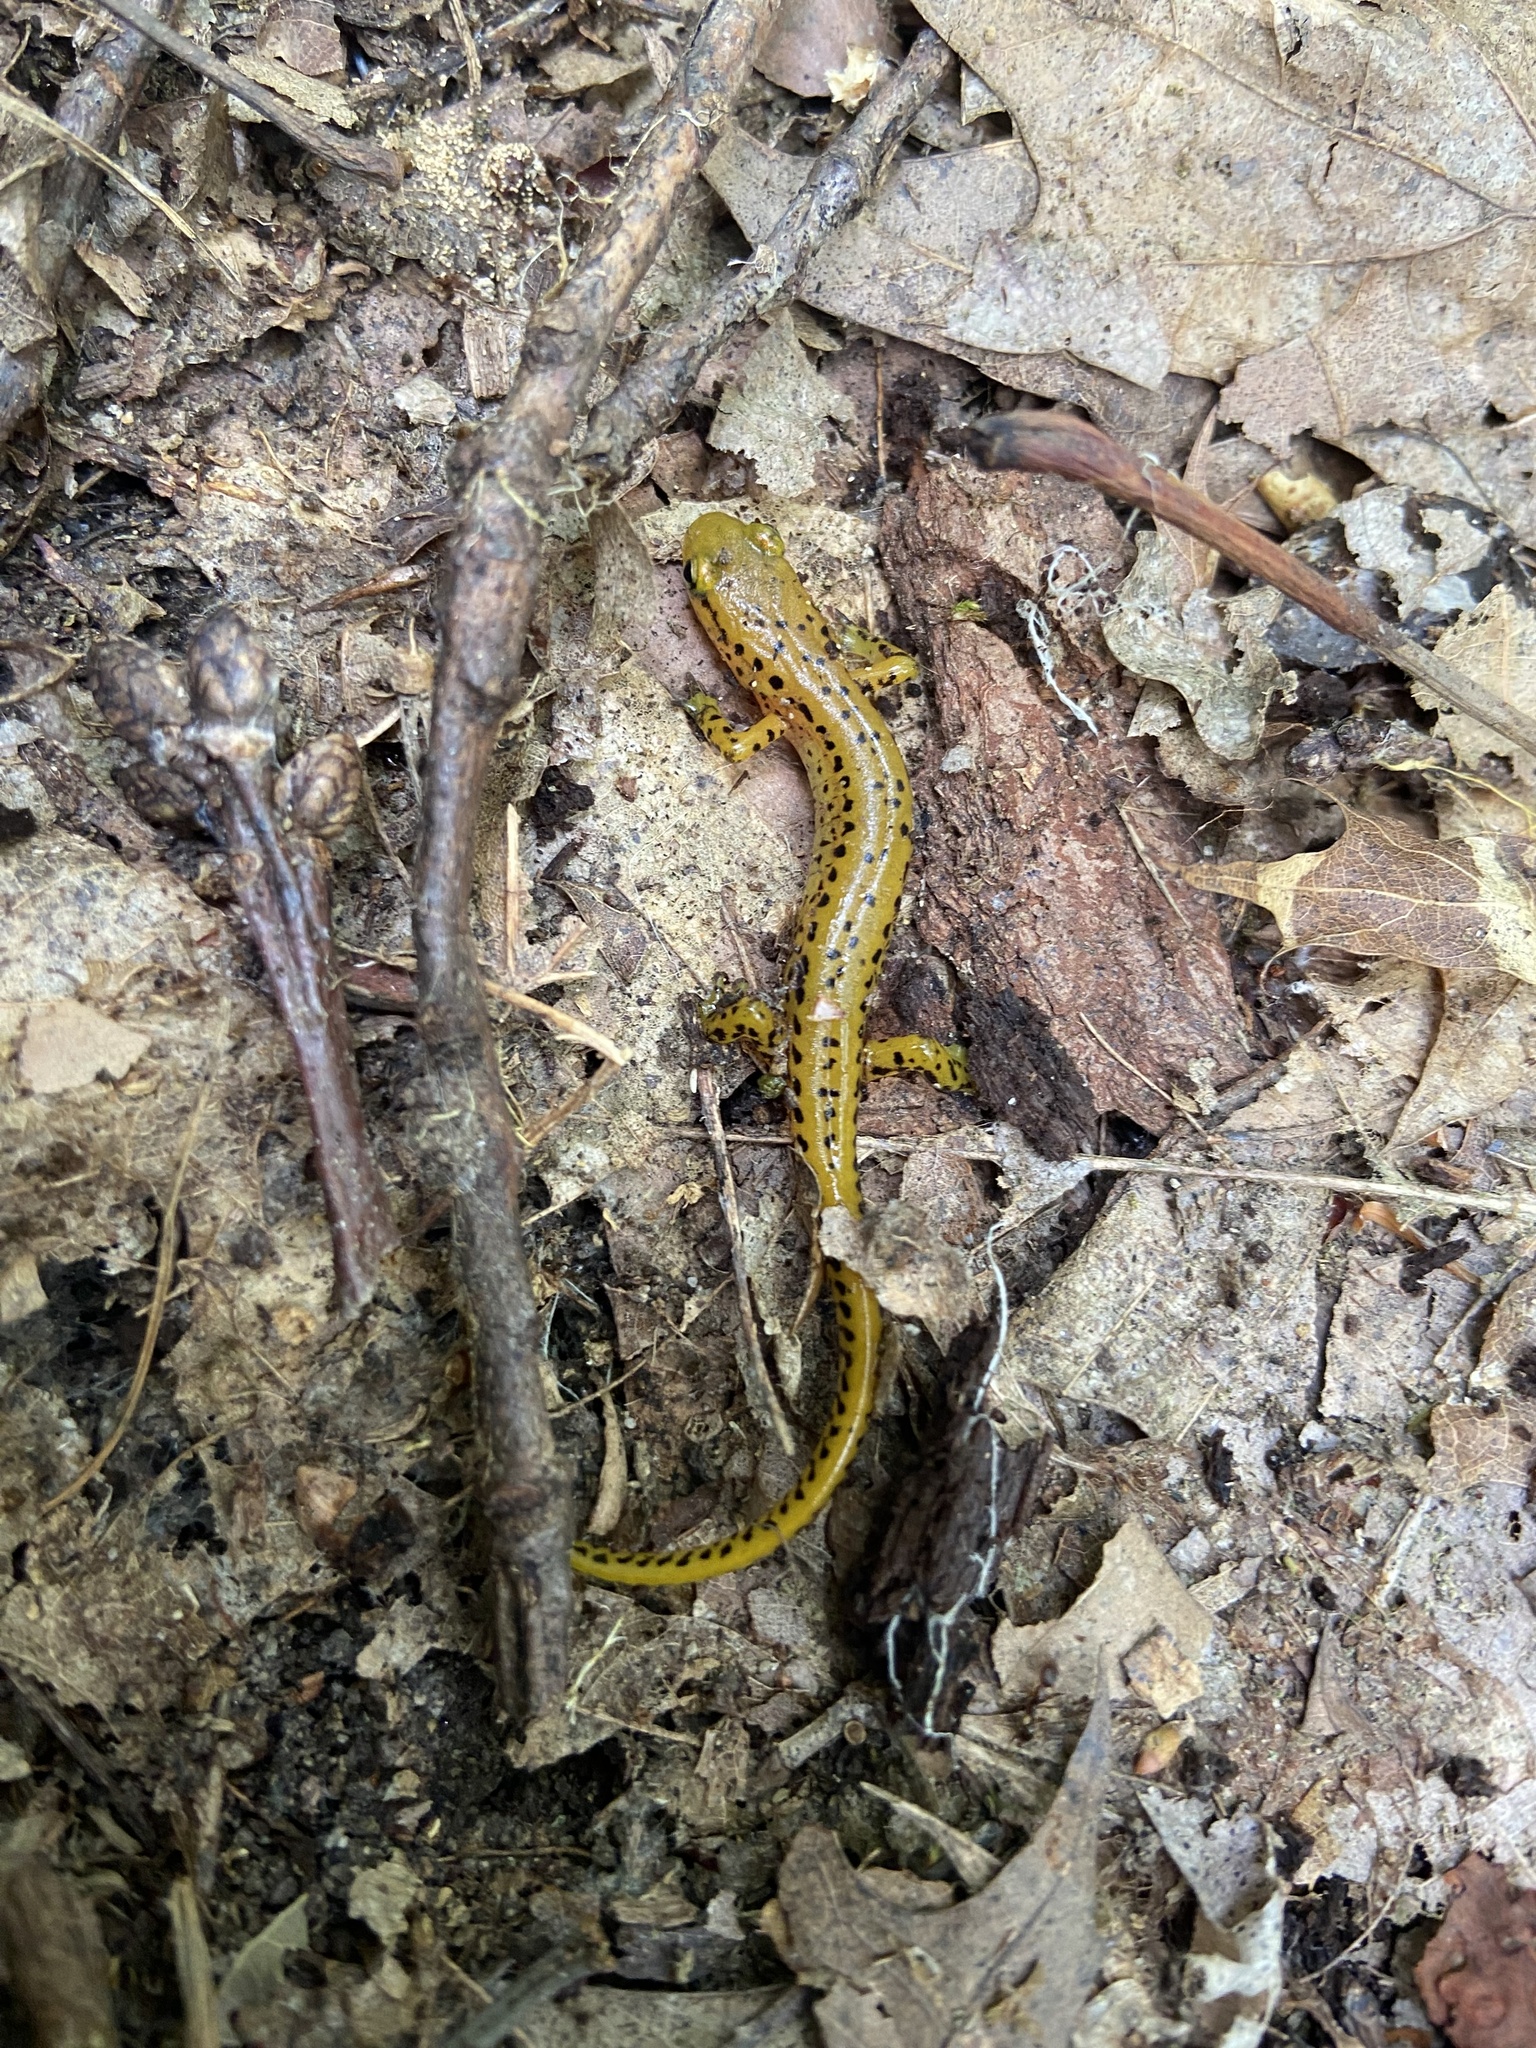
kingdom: Animalia
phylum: Chordata
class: Amphibia
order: Caudata
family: Plethodontidae
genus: Eurycea
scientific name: Eurycea longicauda
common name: Long-tailed salamander
